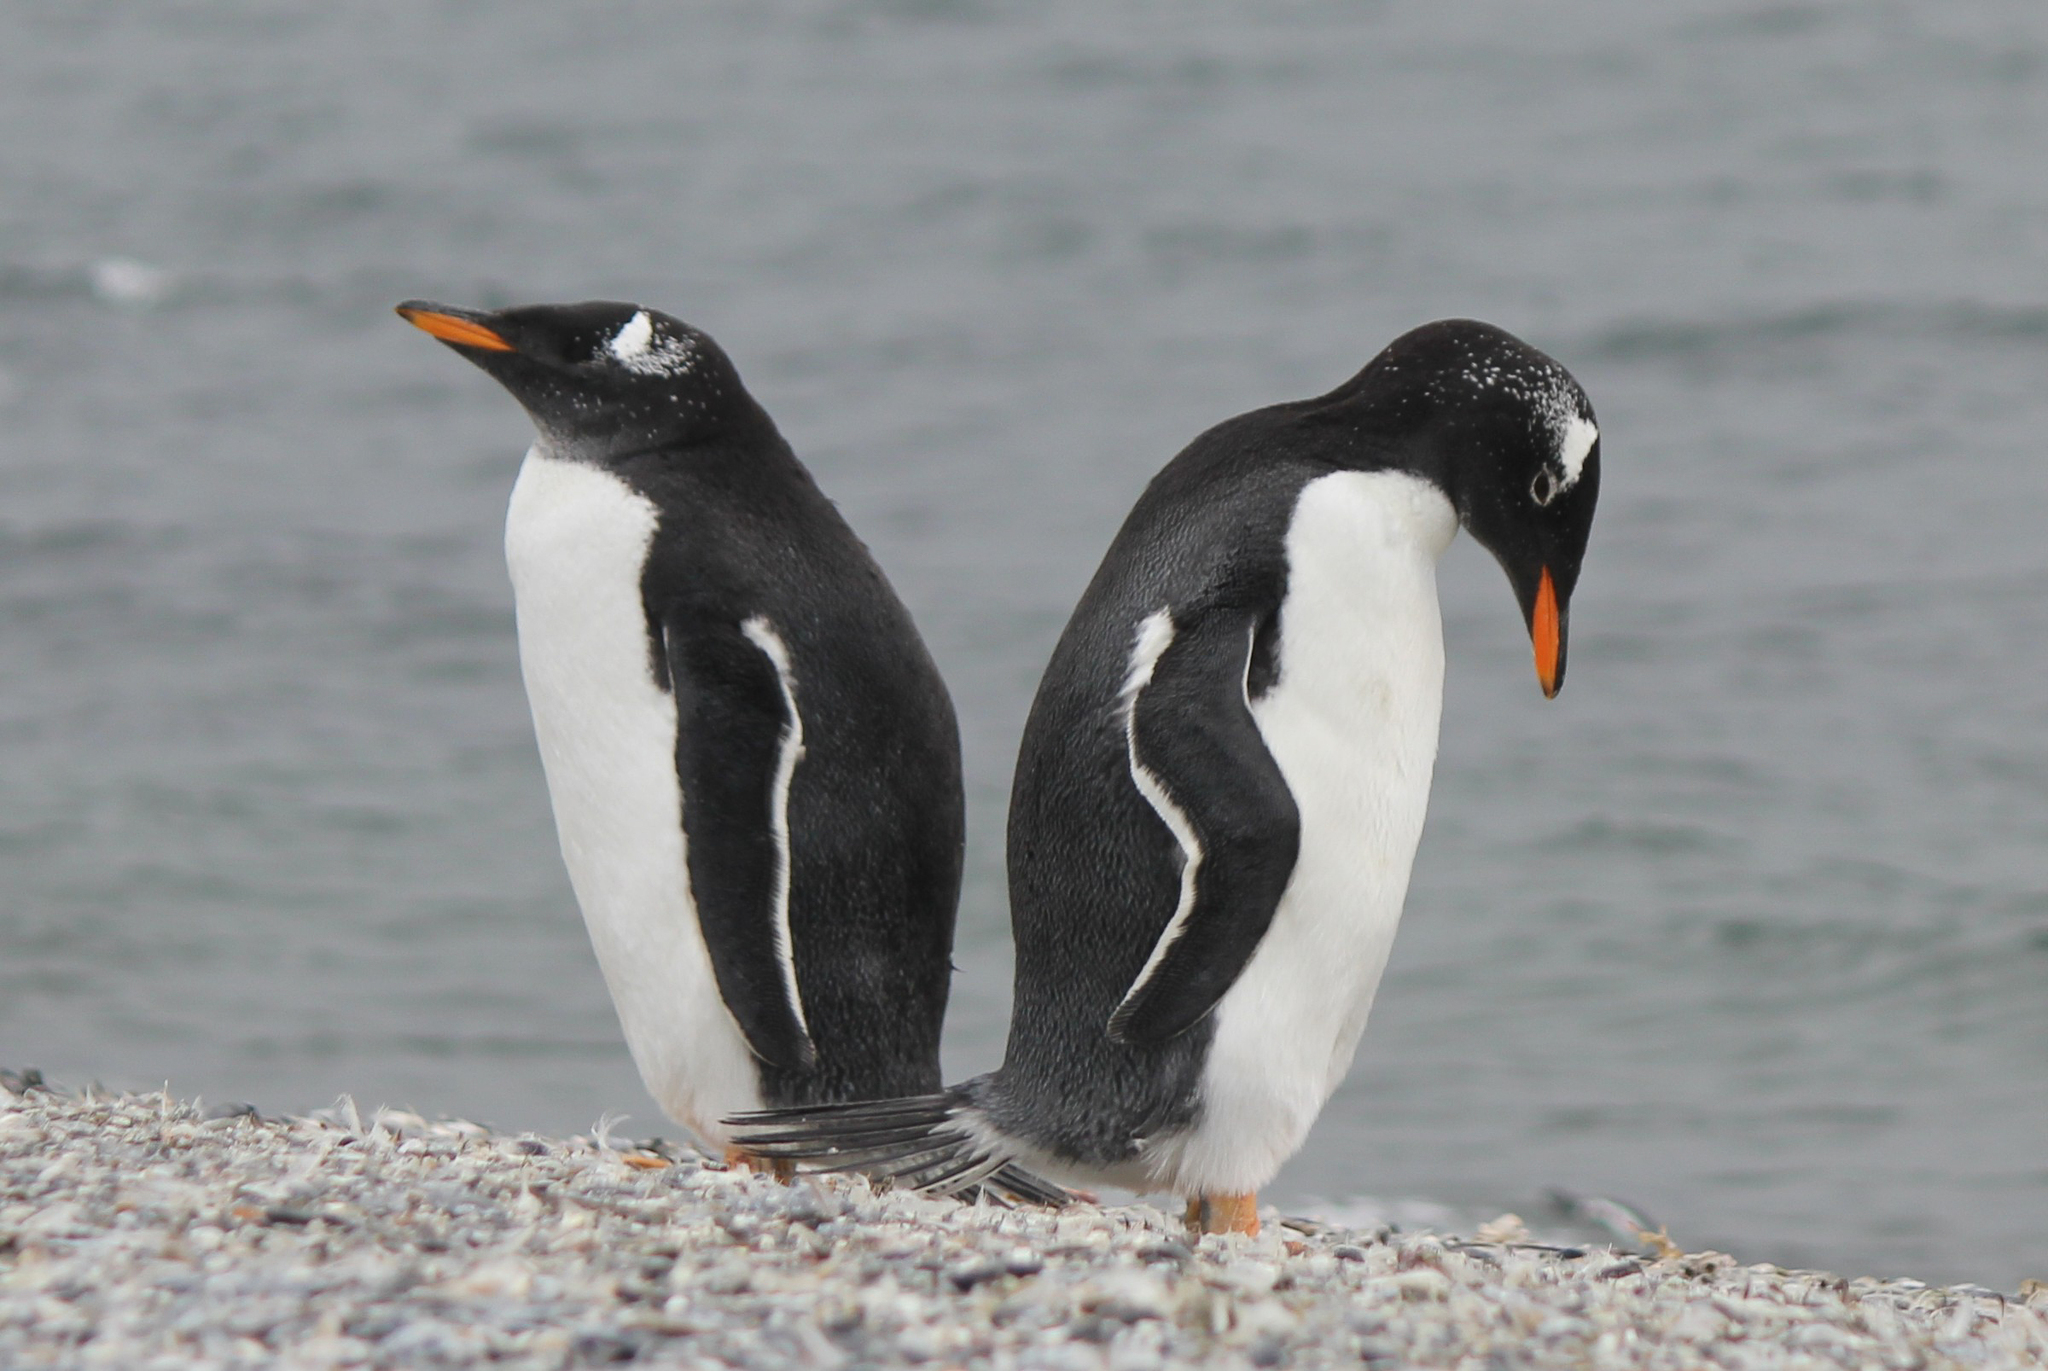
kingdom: Animalia
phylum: Chordata
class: Aves
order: Sphenisciformes
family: Spheniscidae
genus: Pygoscelis
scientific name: Pygoscelis papua
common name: Gentoo penguin
